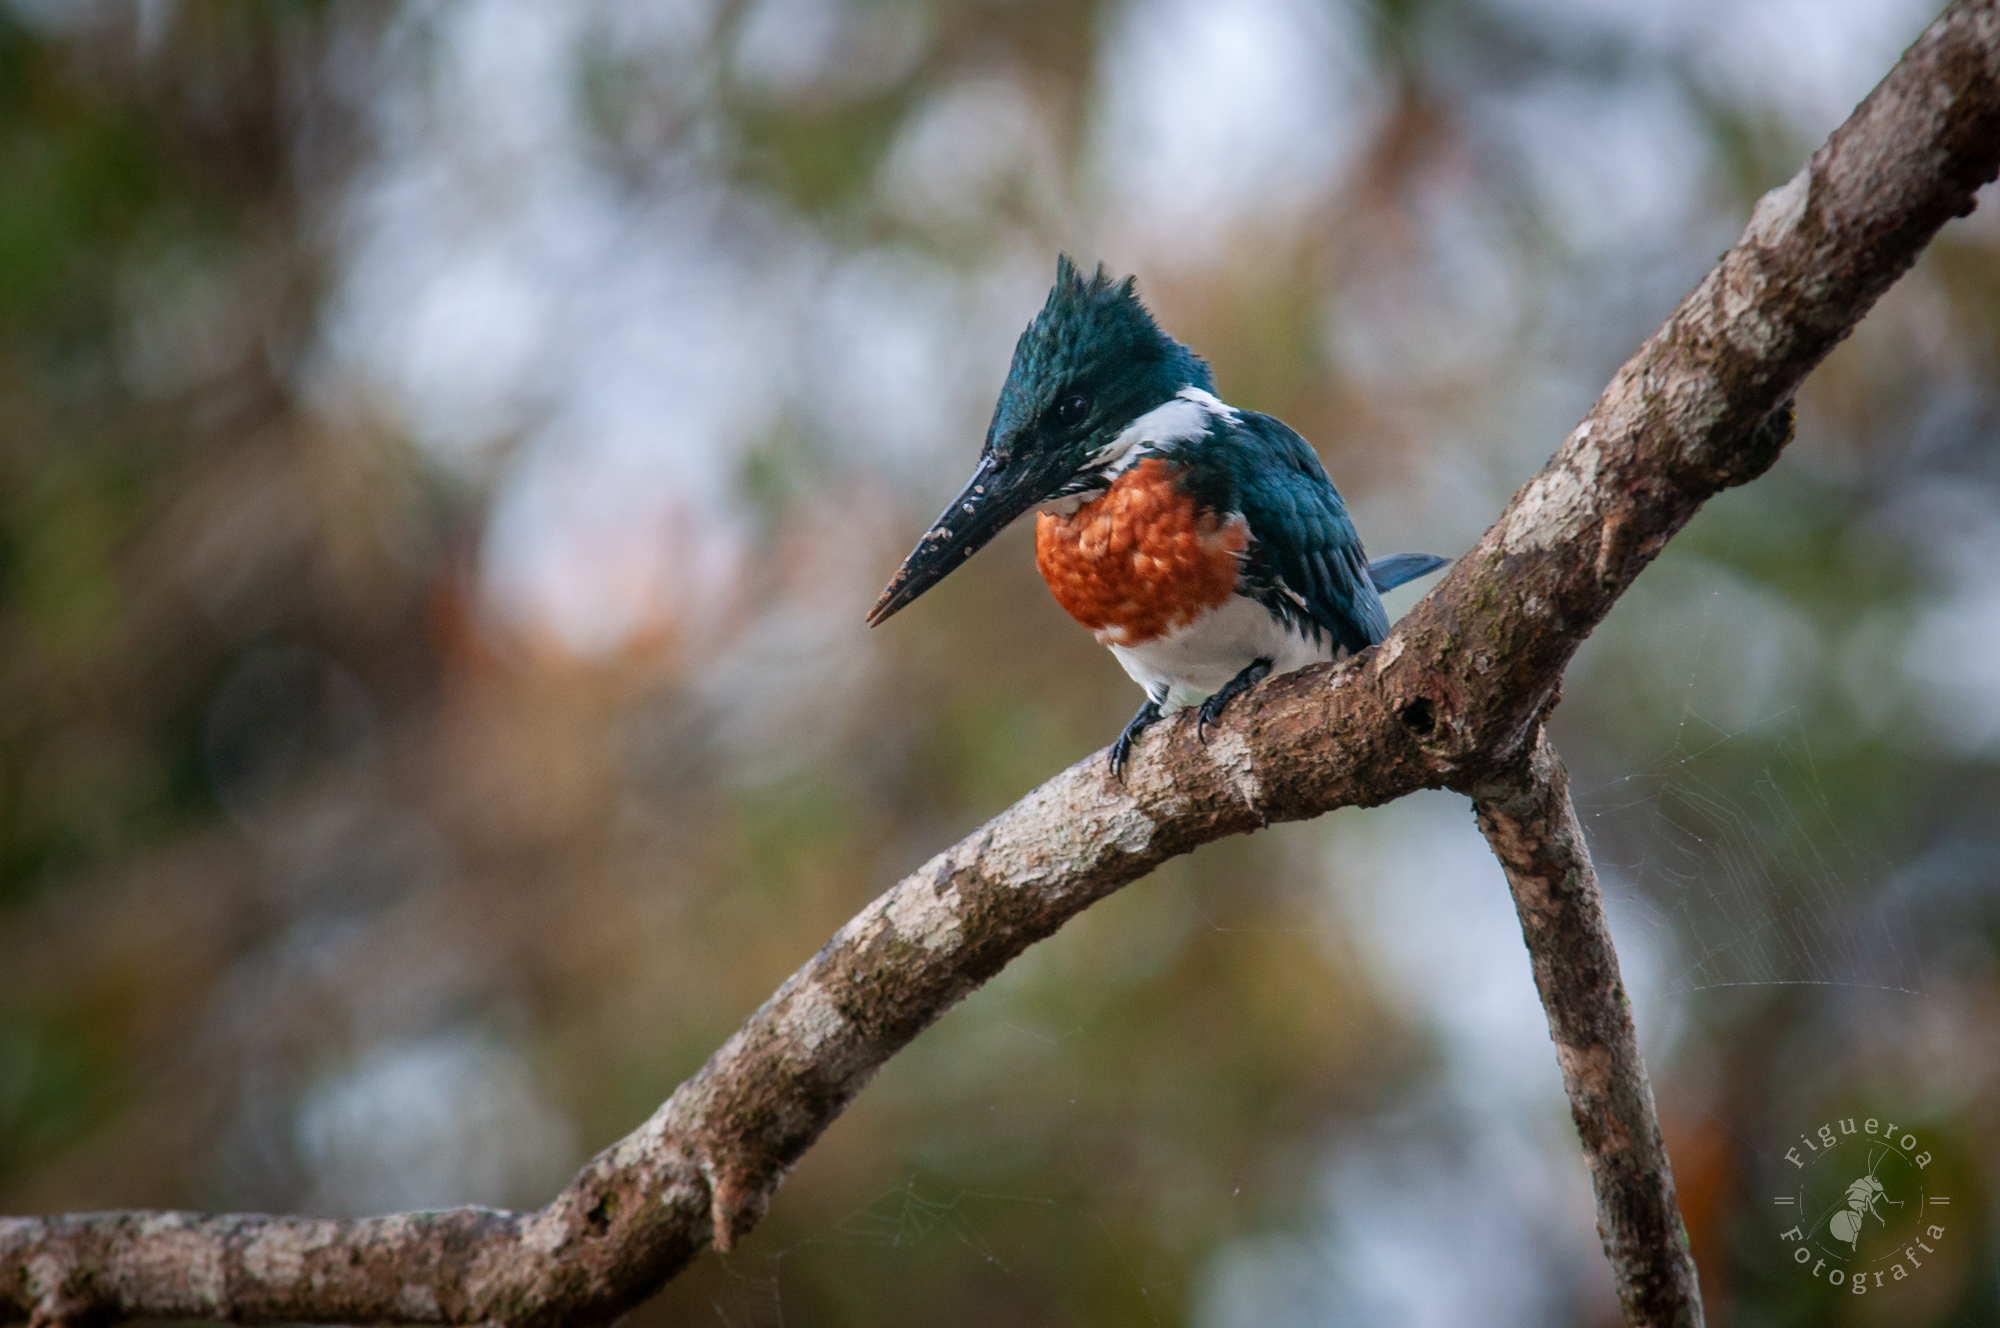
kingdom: Animalia
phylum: Chordata
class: Aves
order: Coraciiformes
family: Alcedinidae
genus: Chloroceryle
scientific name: Chloroceryle amazona
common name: Amazon kingfisher
